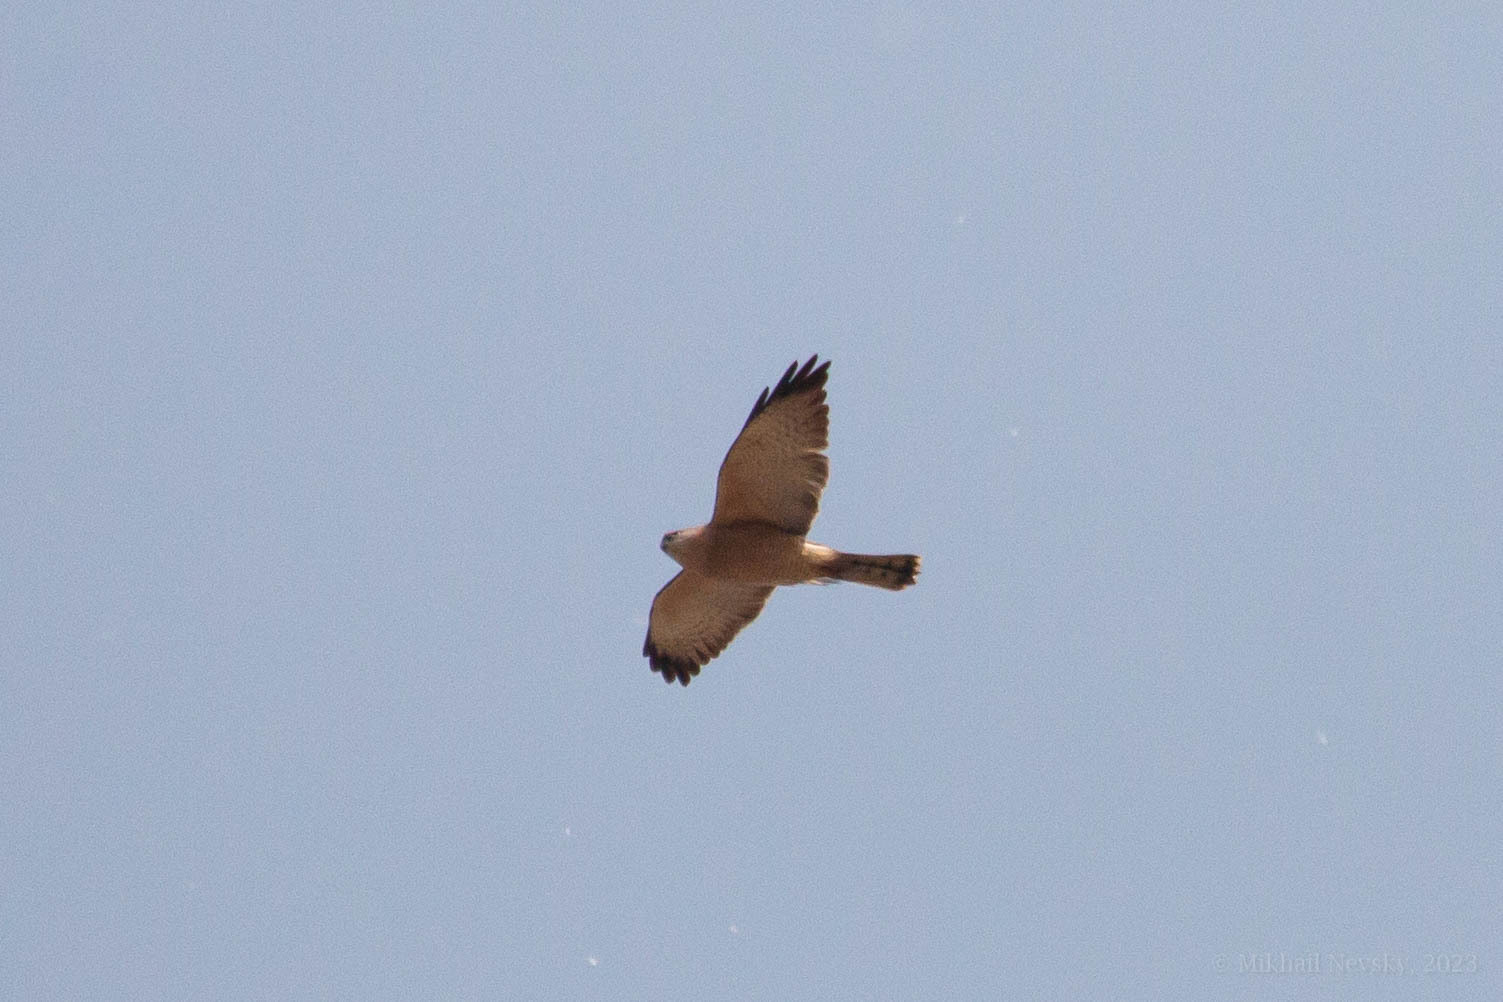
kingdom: Animalia
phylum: Chordata
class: Aves
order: Accipitriformes
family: Accipitridae
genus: Accipiter
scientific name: Accipiter brevipes
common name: Levant sparrowhawk
